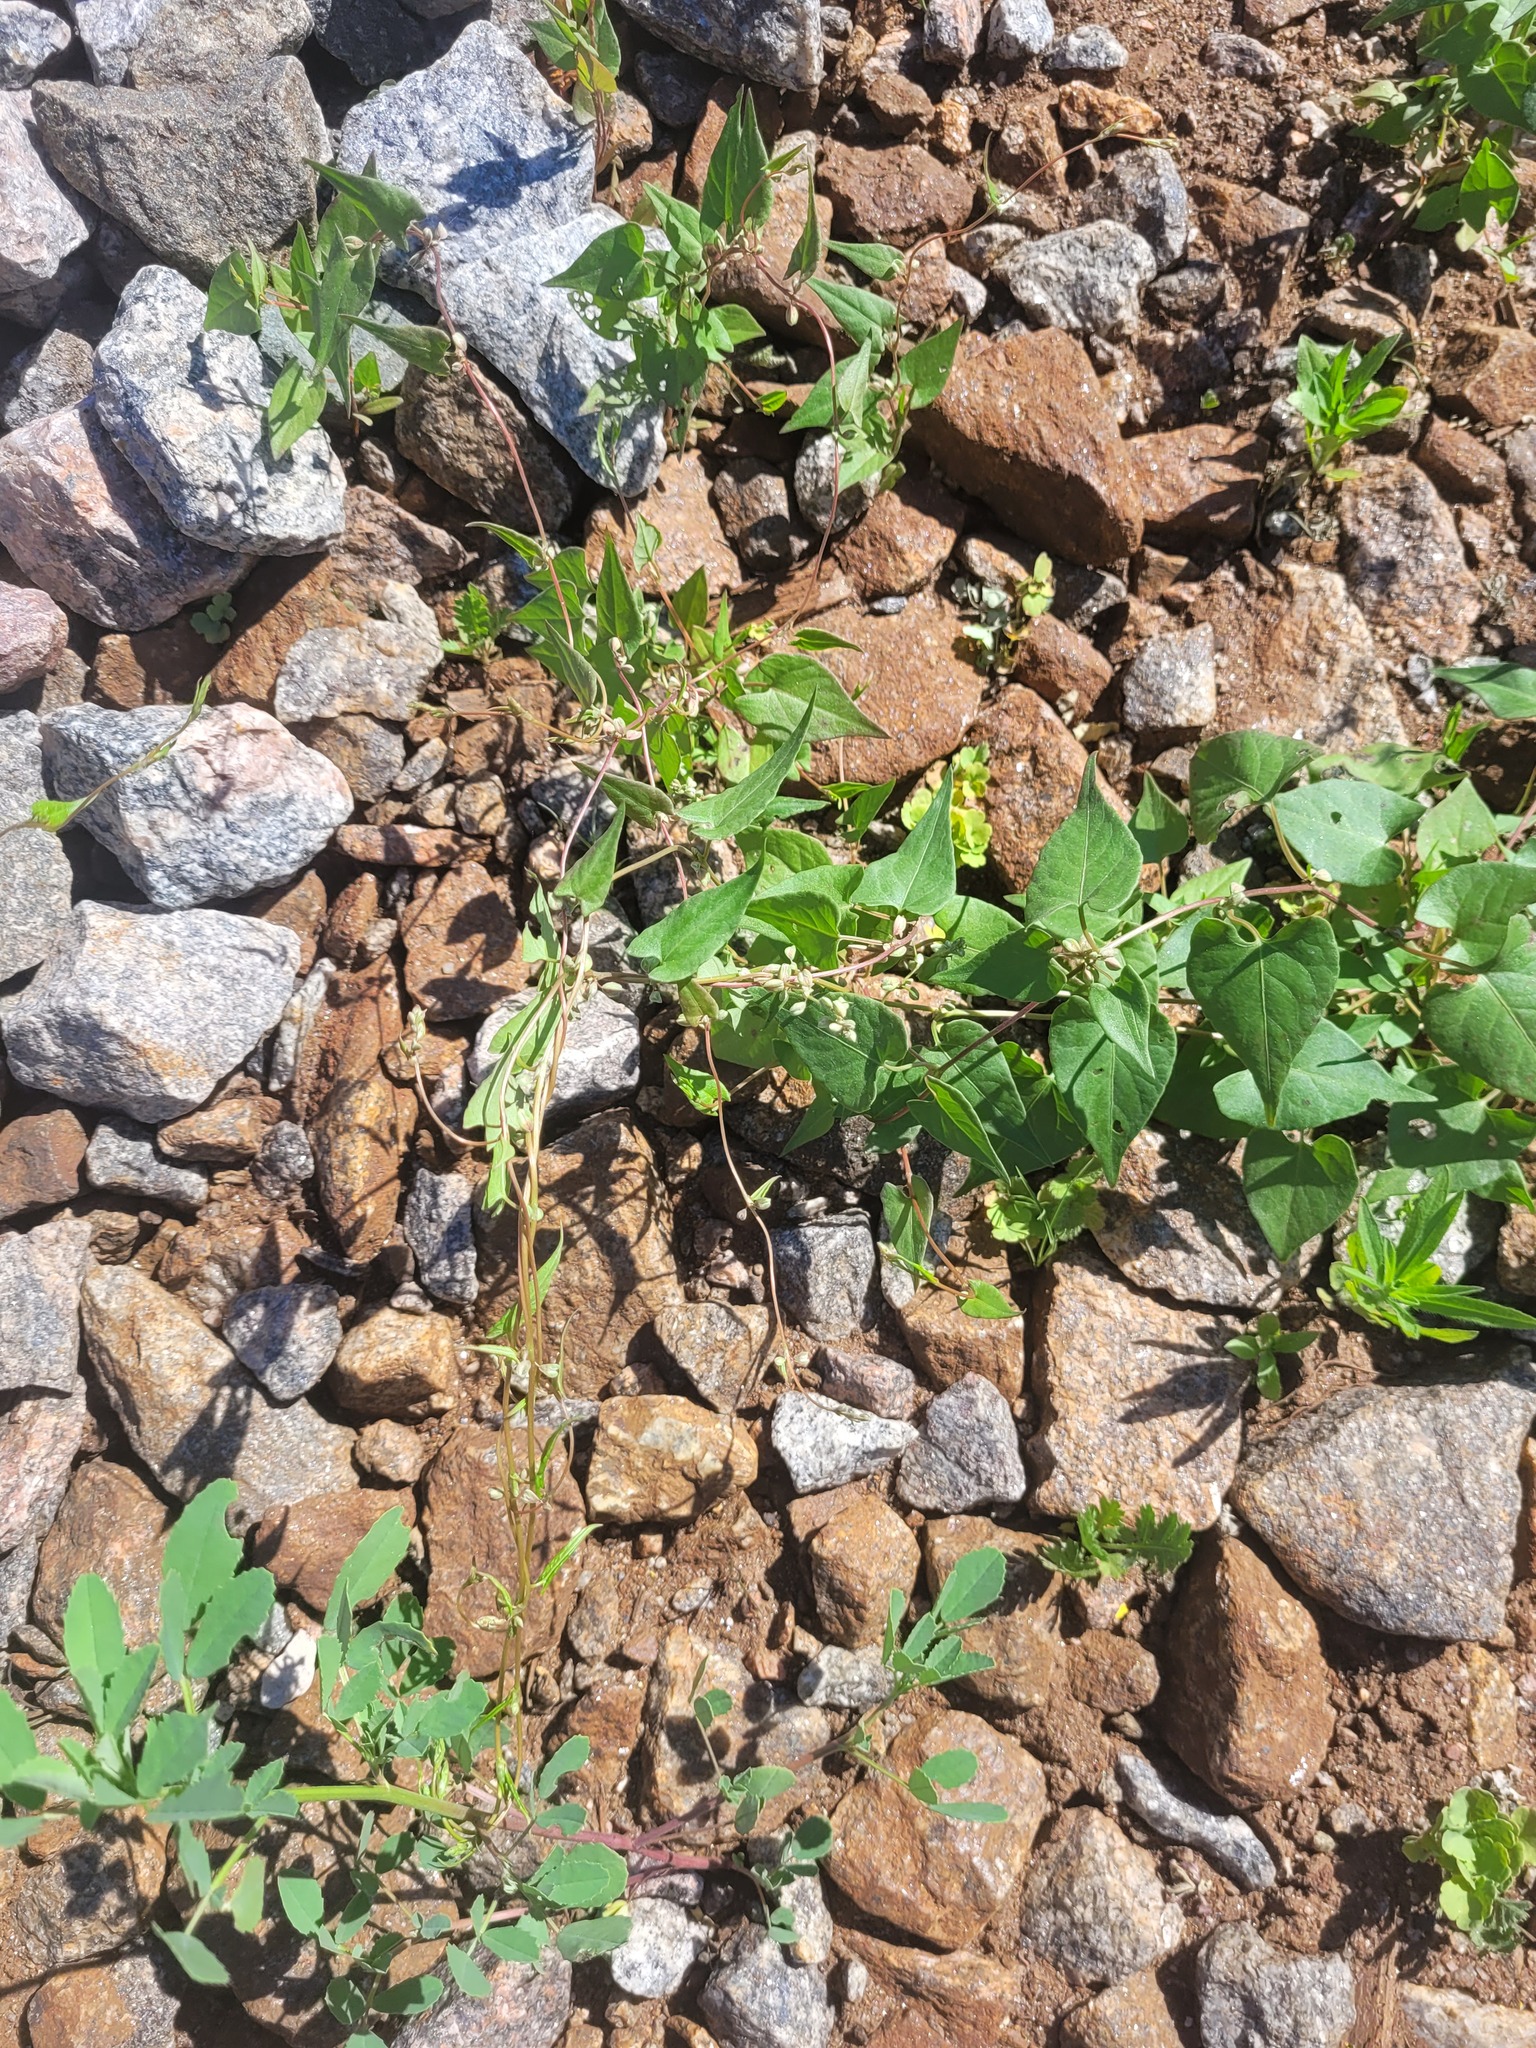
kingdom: Plantae
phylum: Tracheophyta
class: Magnoliopsida
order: Caryophyllales
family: Polygonaceae
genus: Fallopia
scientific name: Fallopia convolvulus
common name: Black bindweed
